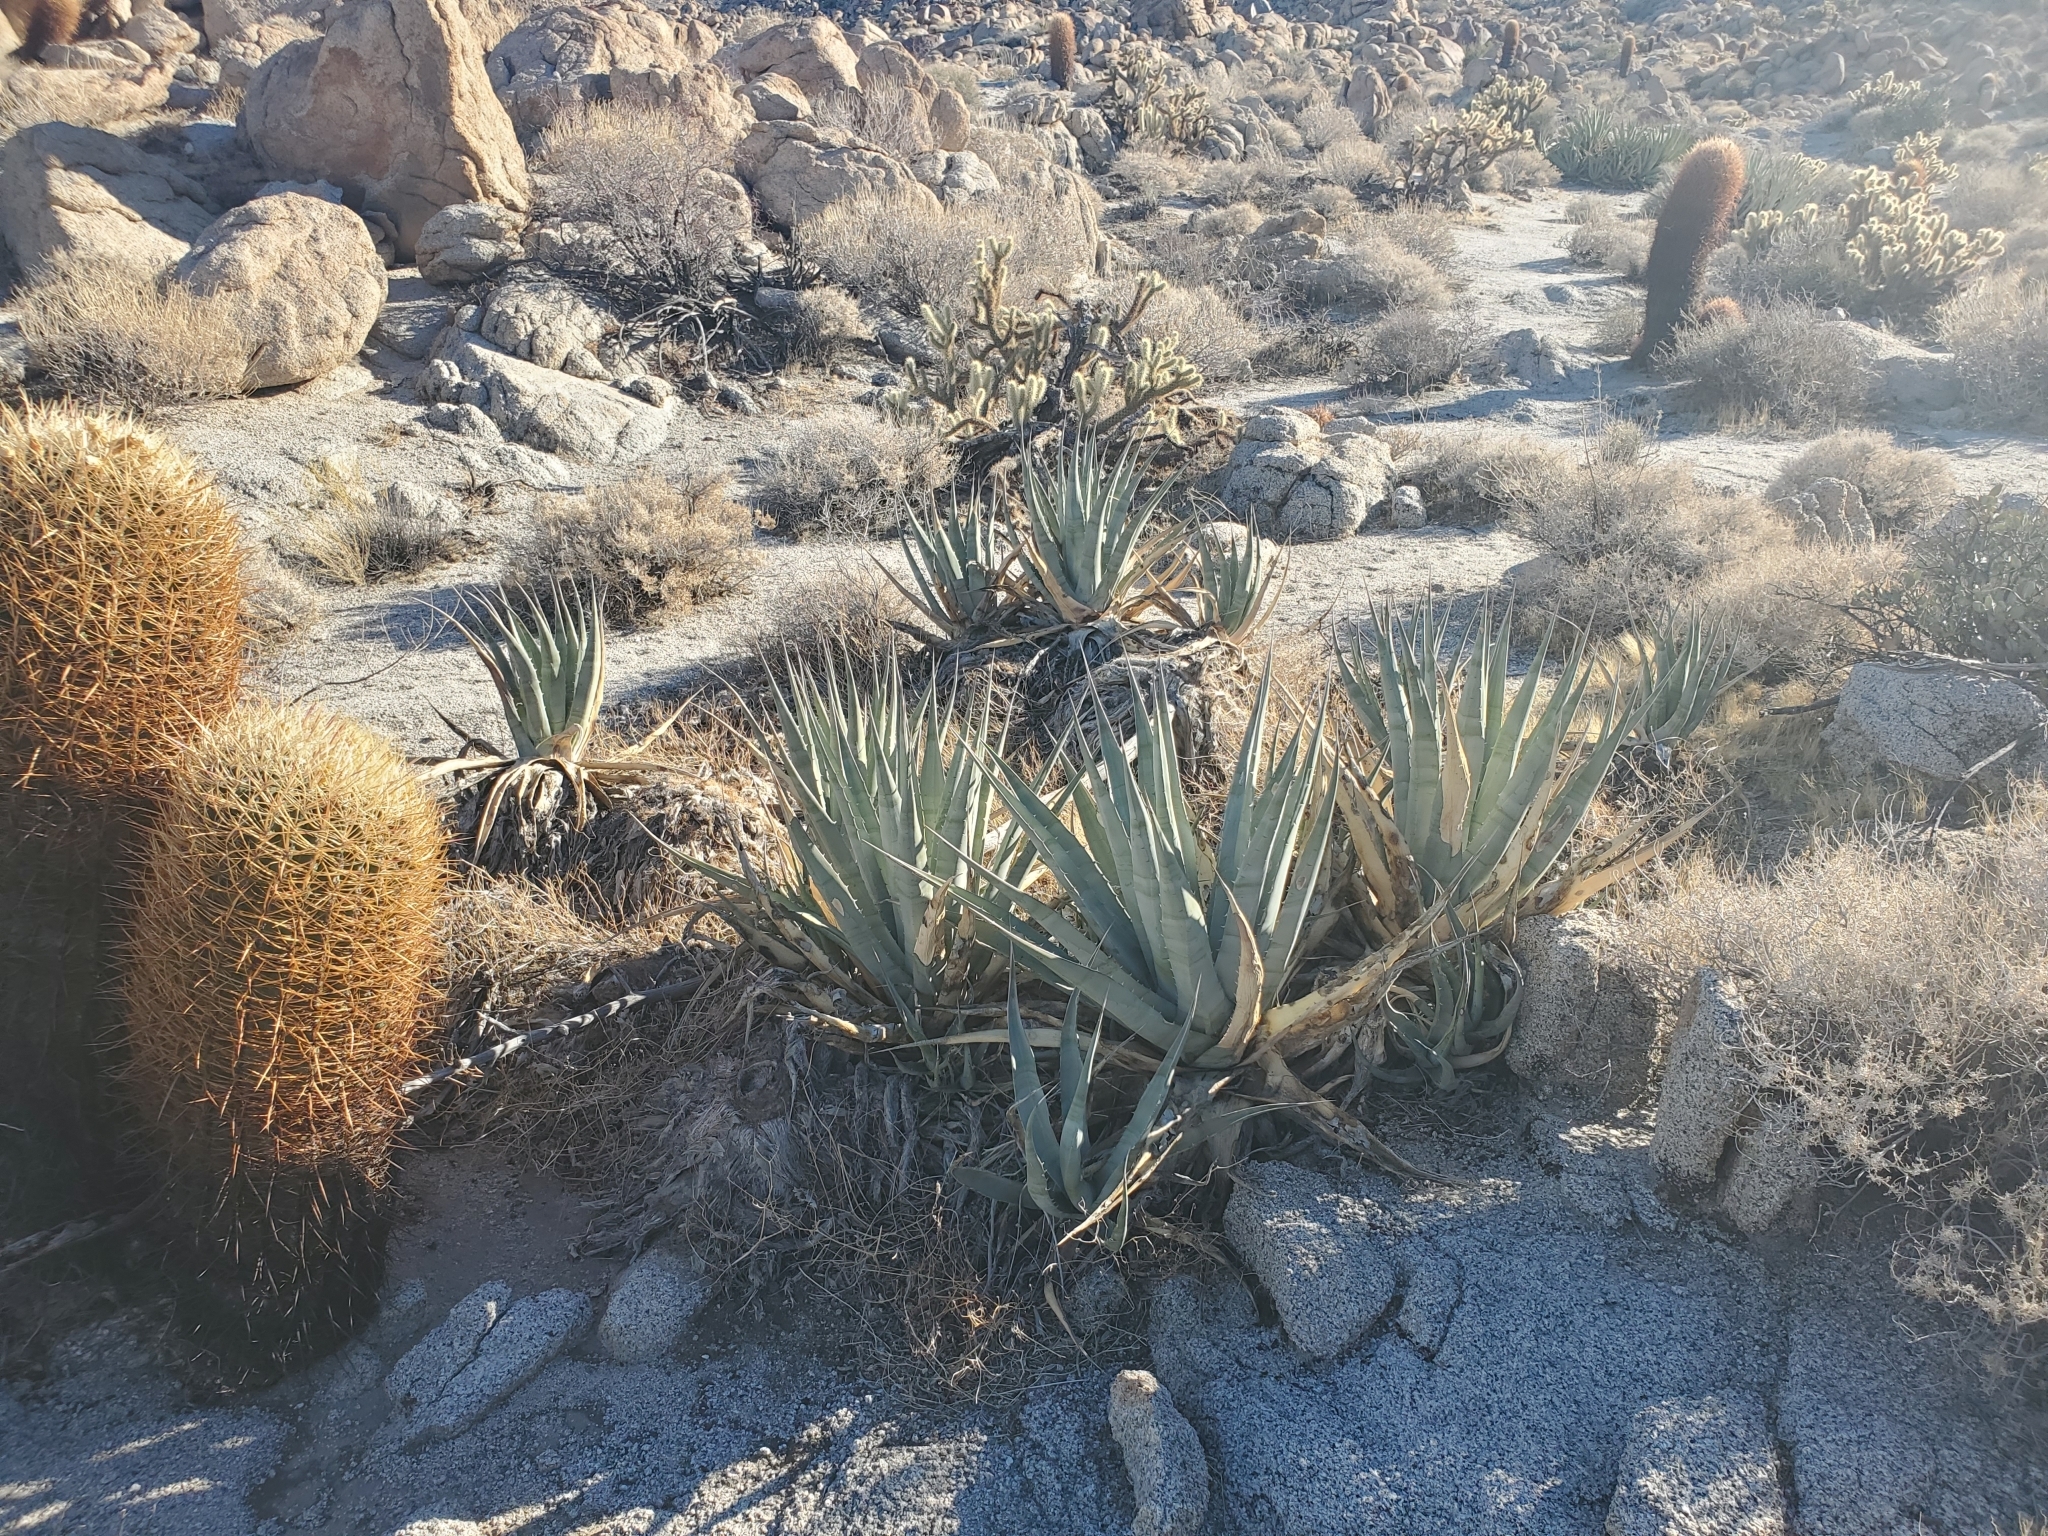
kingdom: Plantae
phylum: Tracheophyta
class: Liliopsida
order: Asparagales
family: Asparagaceae
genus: Agave
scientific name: Agave deserti
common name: Desert agave
